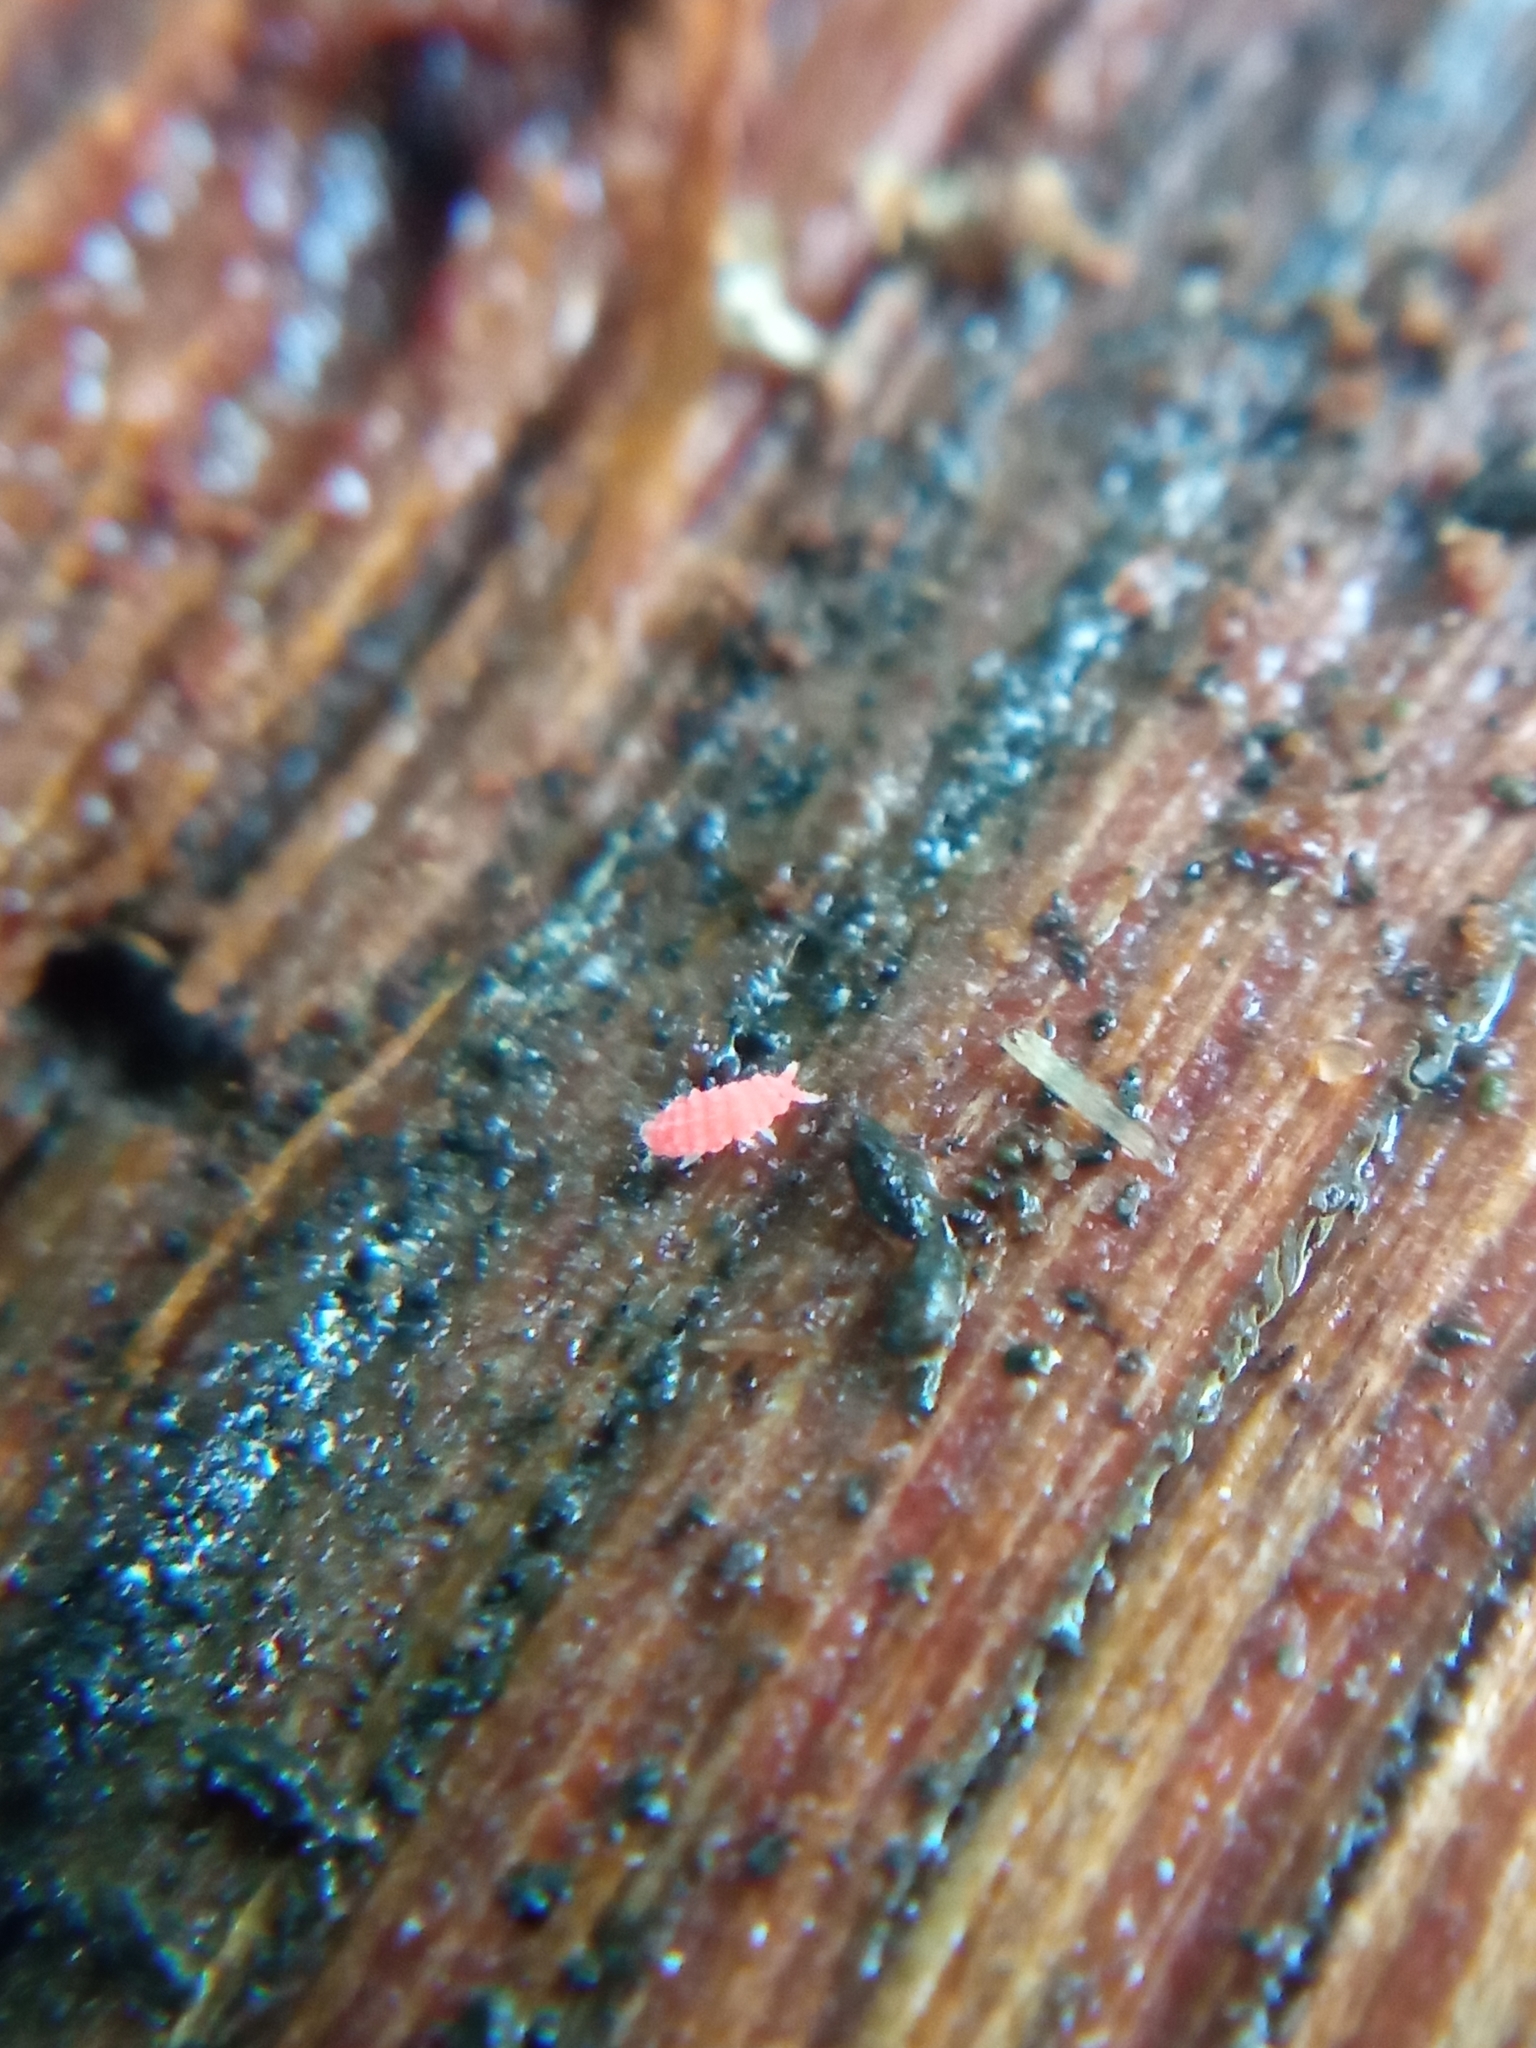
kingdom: Animalia
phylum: Arthropoda
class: Collembola
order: Poduromorpha
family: Neanuridae
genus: Bilobella
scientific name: Bilobella braunerae
